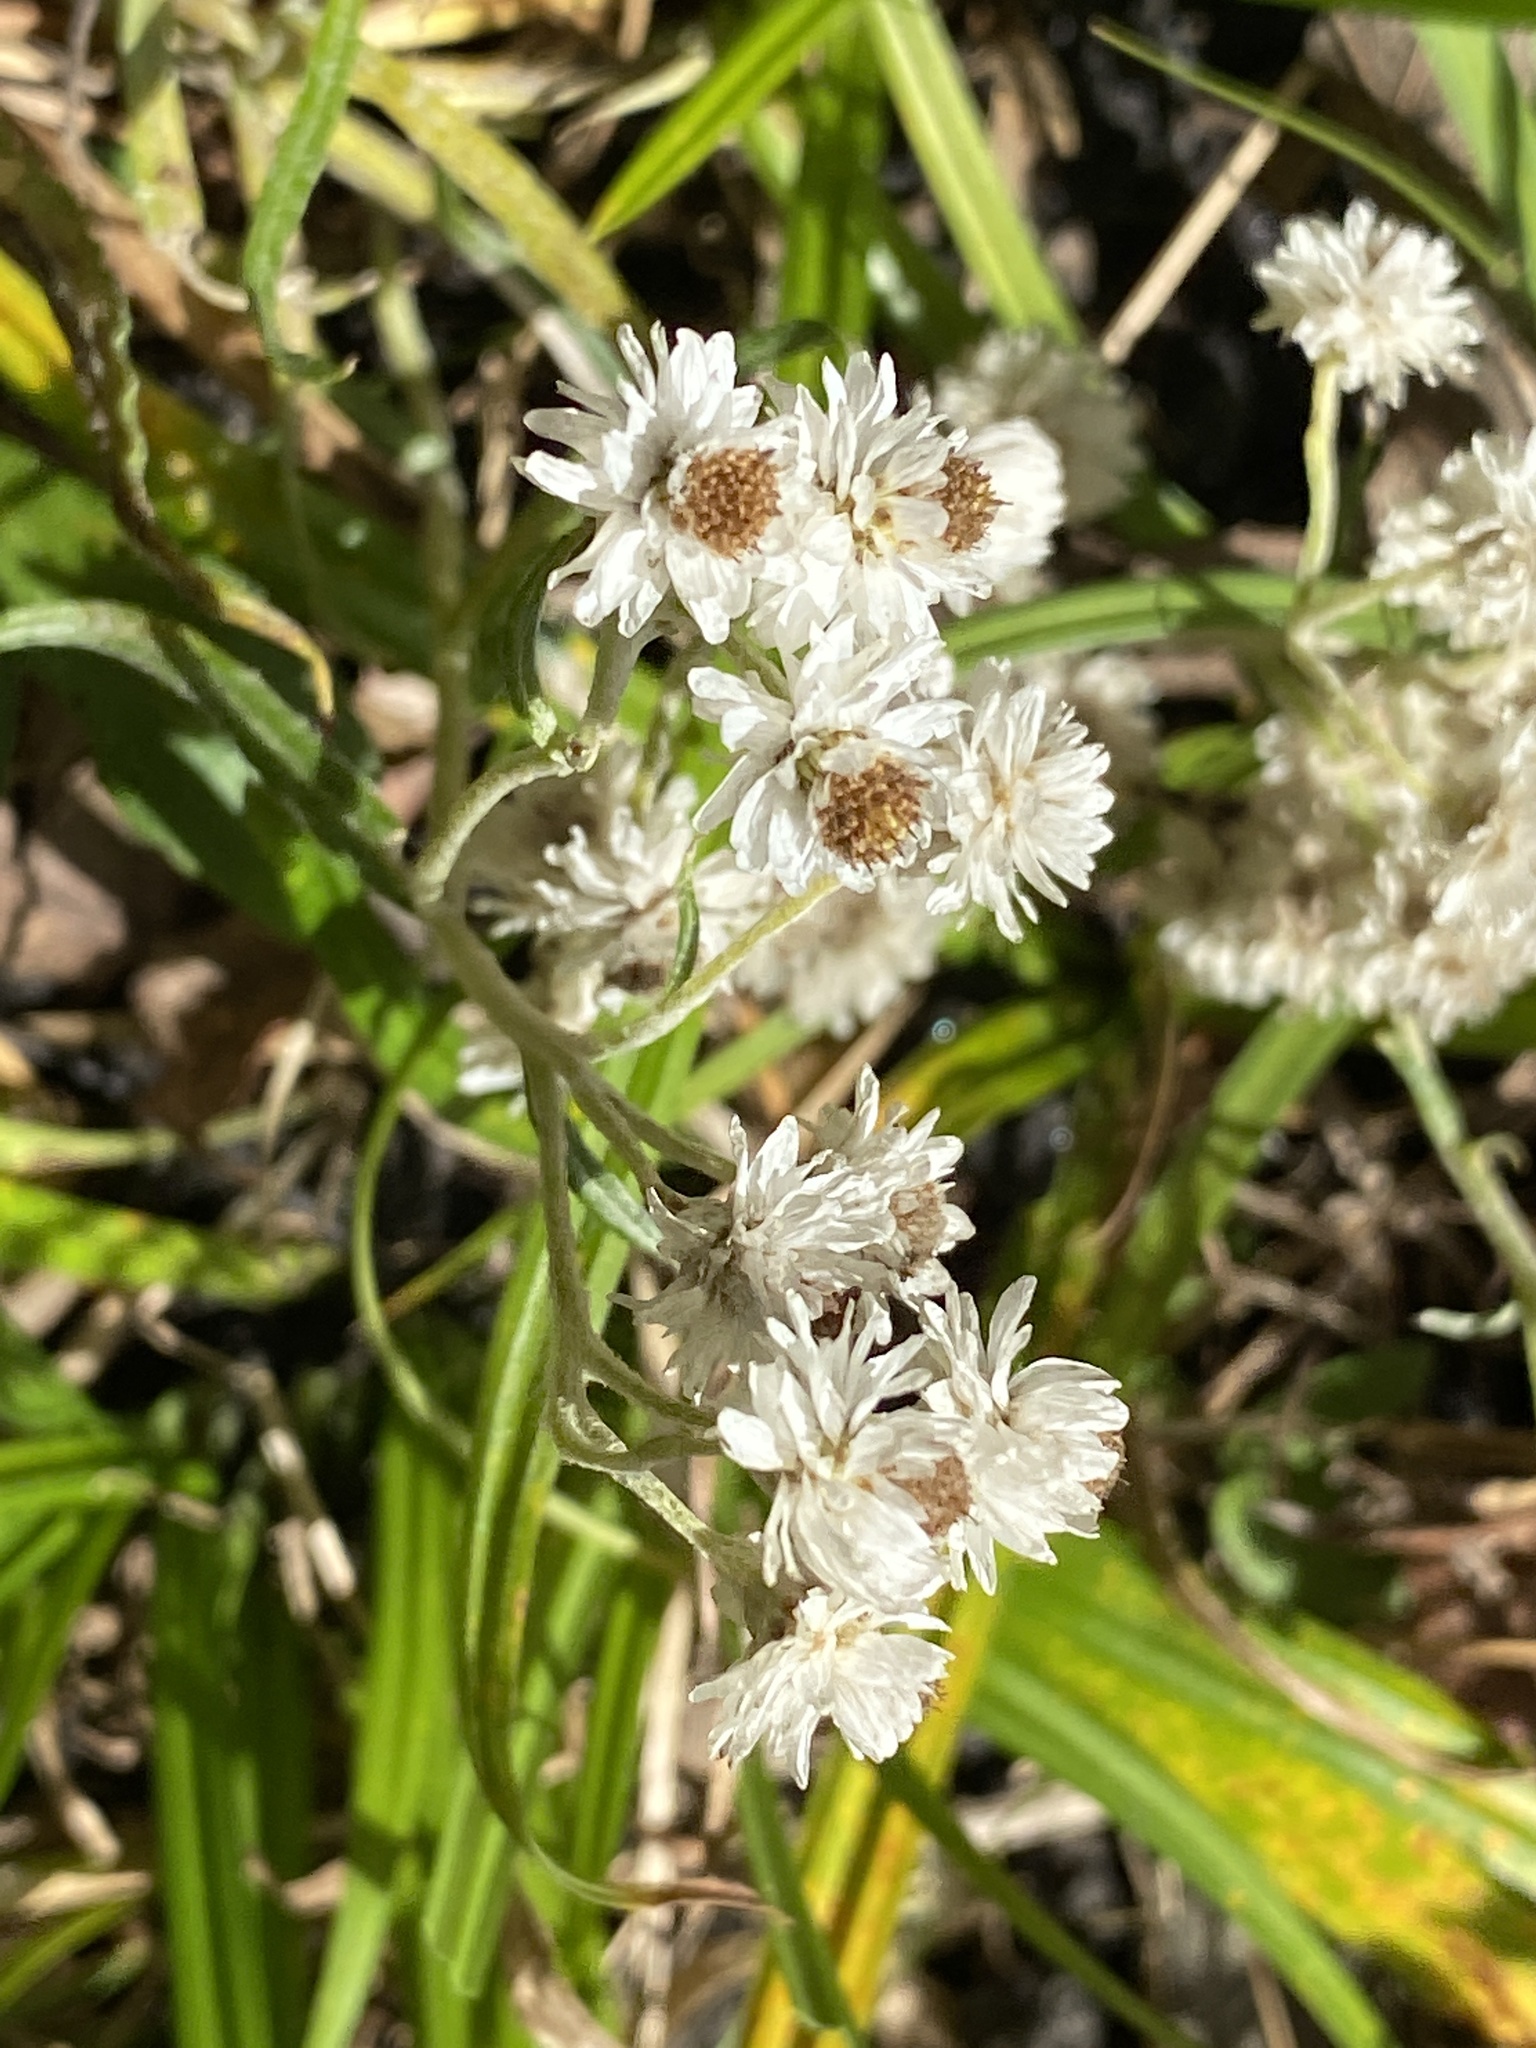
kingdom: Plantae
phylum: Tracheophyta
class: Magnoliopsida
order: Asterales
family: Asteraceae
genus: Anaphalis
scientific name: Anaphalis margaritacea
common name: Pearly everlasting
